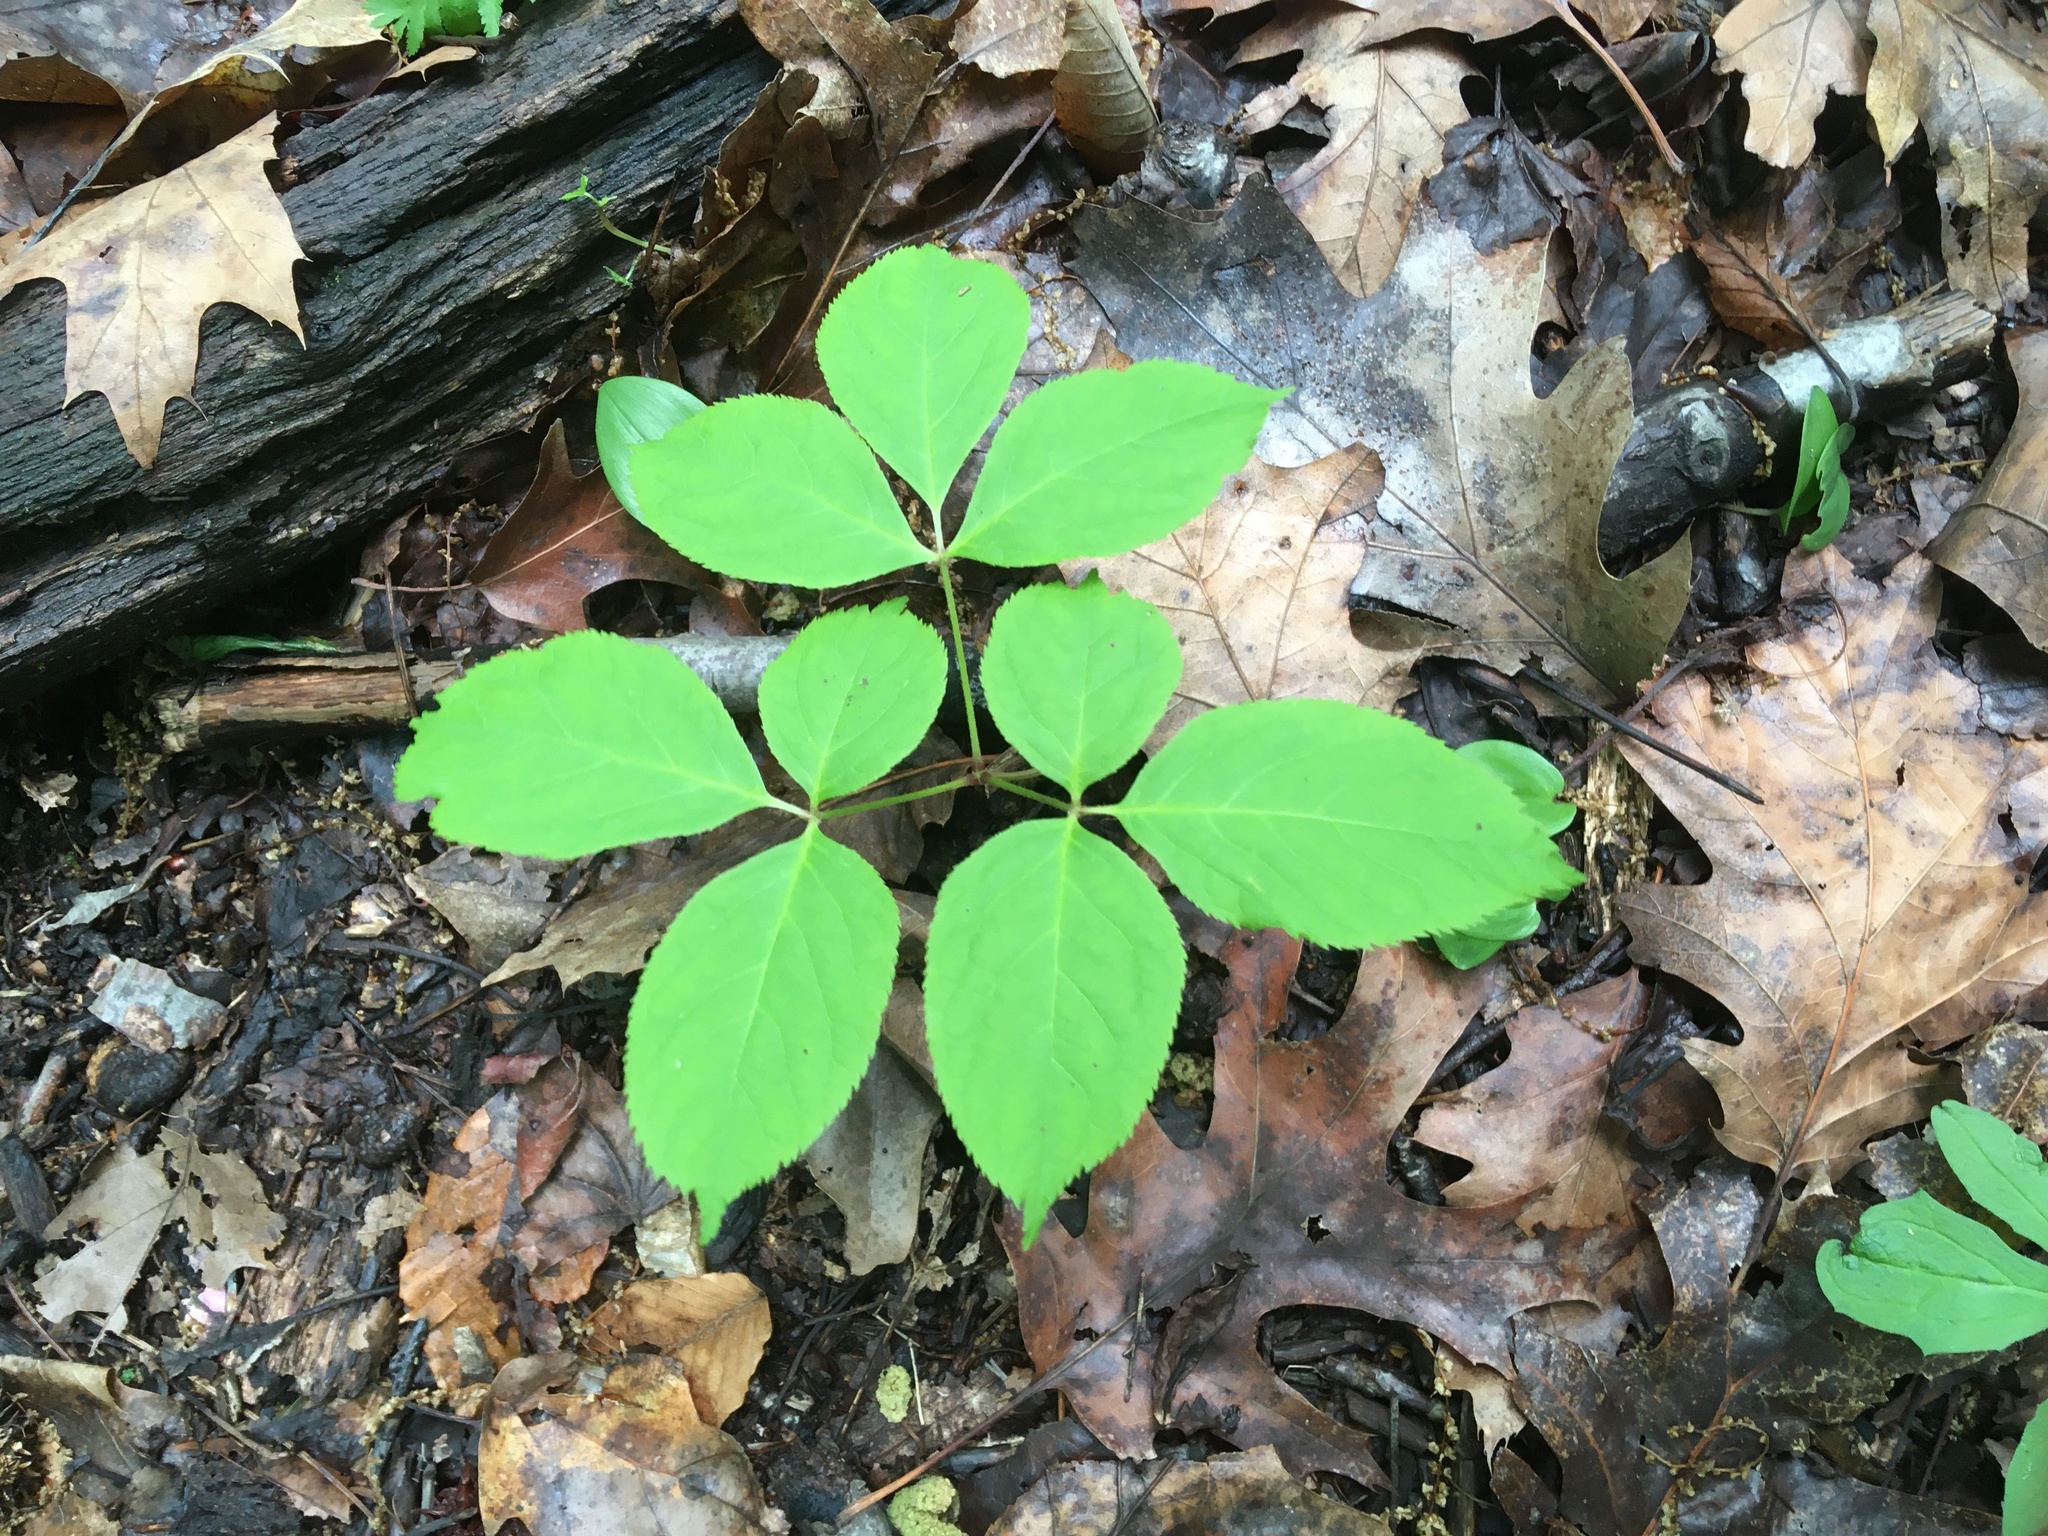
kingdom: Plantae
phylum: Tracheophyta
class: Magnoliopsida
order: Apiales
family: Araliaceae
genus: Aralia
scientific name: Aralia nudicaulis
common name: Wild sarsaparilla
